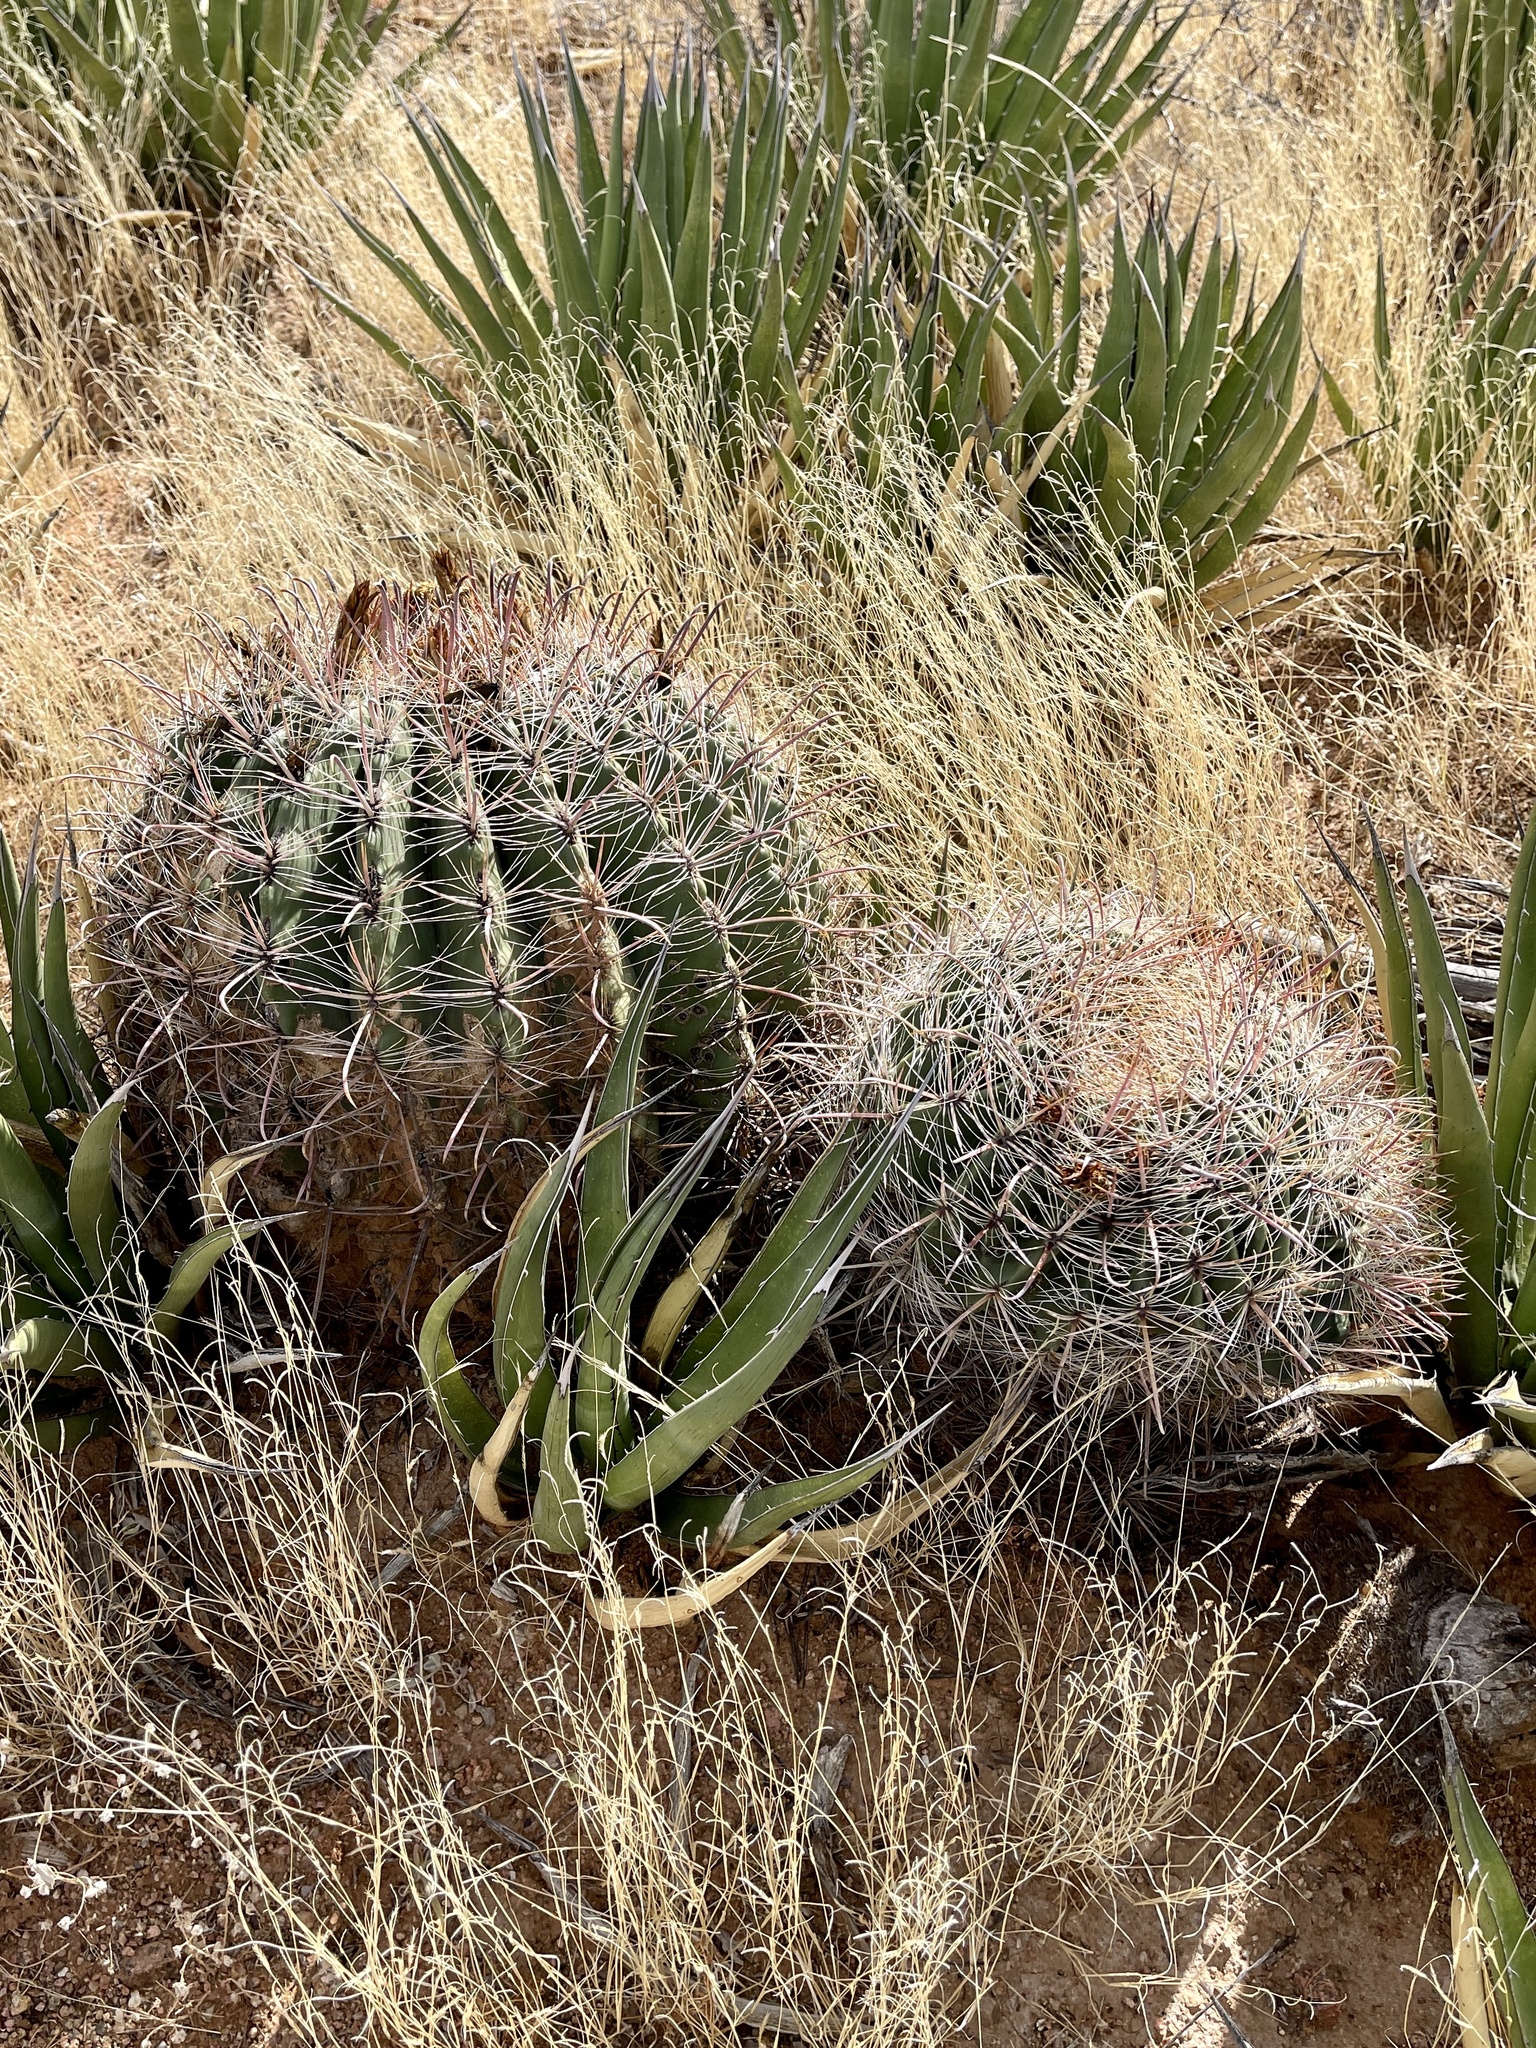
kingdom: Plantae
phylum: Tracheophyta
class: Magnoliopsida
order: Caryophyllales
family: Cactaceae
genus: Ferocactus
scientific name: Ferocactus wislizeni
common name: Candy barrel cactus
